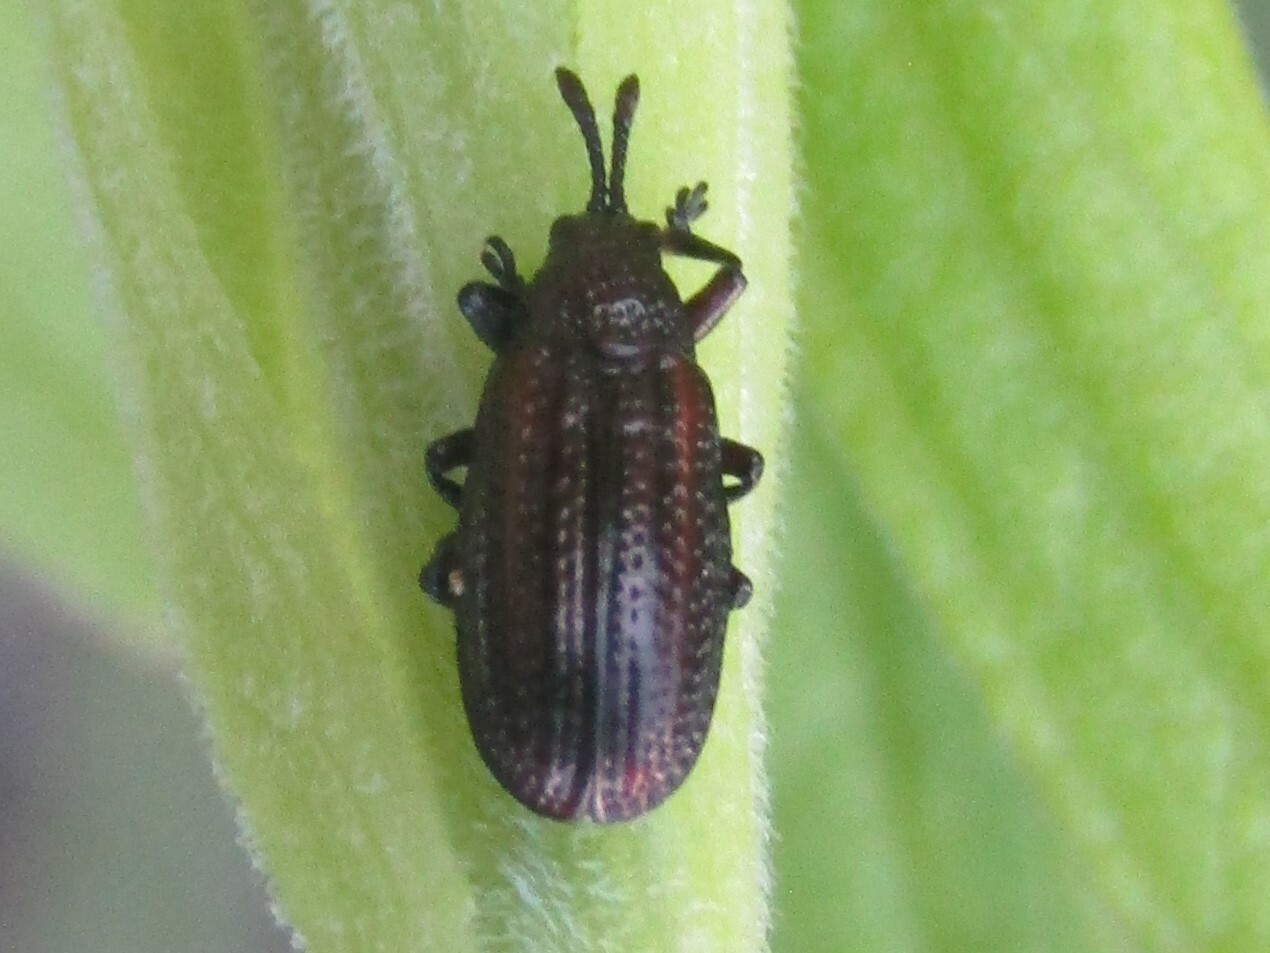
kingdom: Animalia
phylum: Arthropoda
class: Insecta
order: Coleoptera
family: Chrysomelidae
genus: Microrhopala
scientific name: Microrhopala vittata
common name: Goldenrod leaf miner beetle
